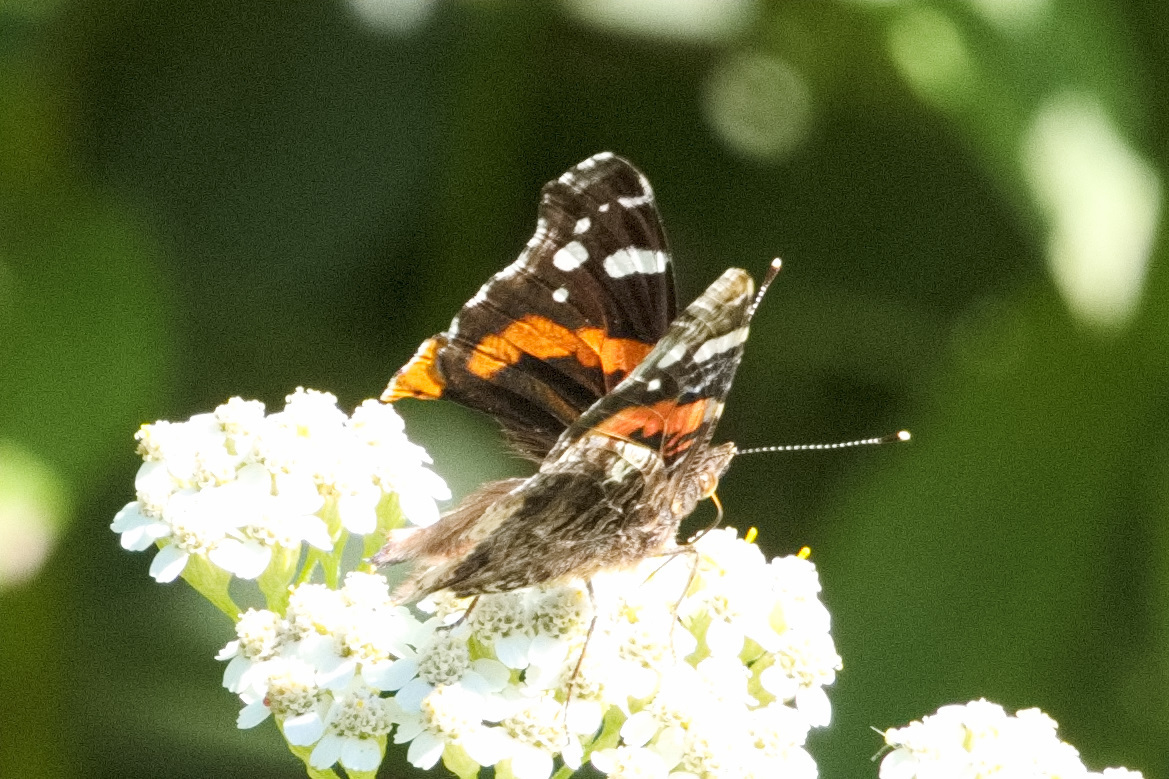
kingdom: Animalia
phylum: Arthropoda
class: Insecta
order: Lepidoptera
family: Nymphalidae
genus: Vanessa
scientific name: Vanessa atalanta
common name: Red admiral
